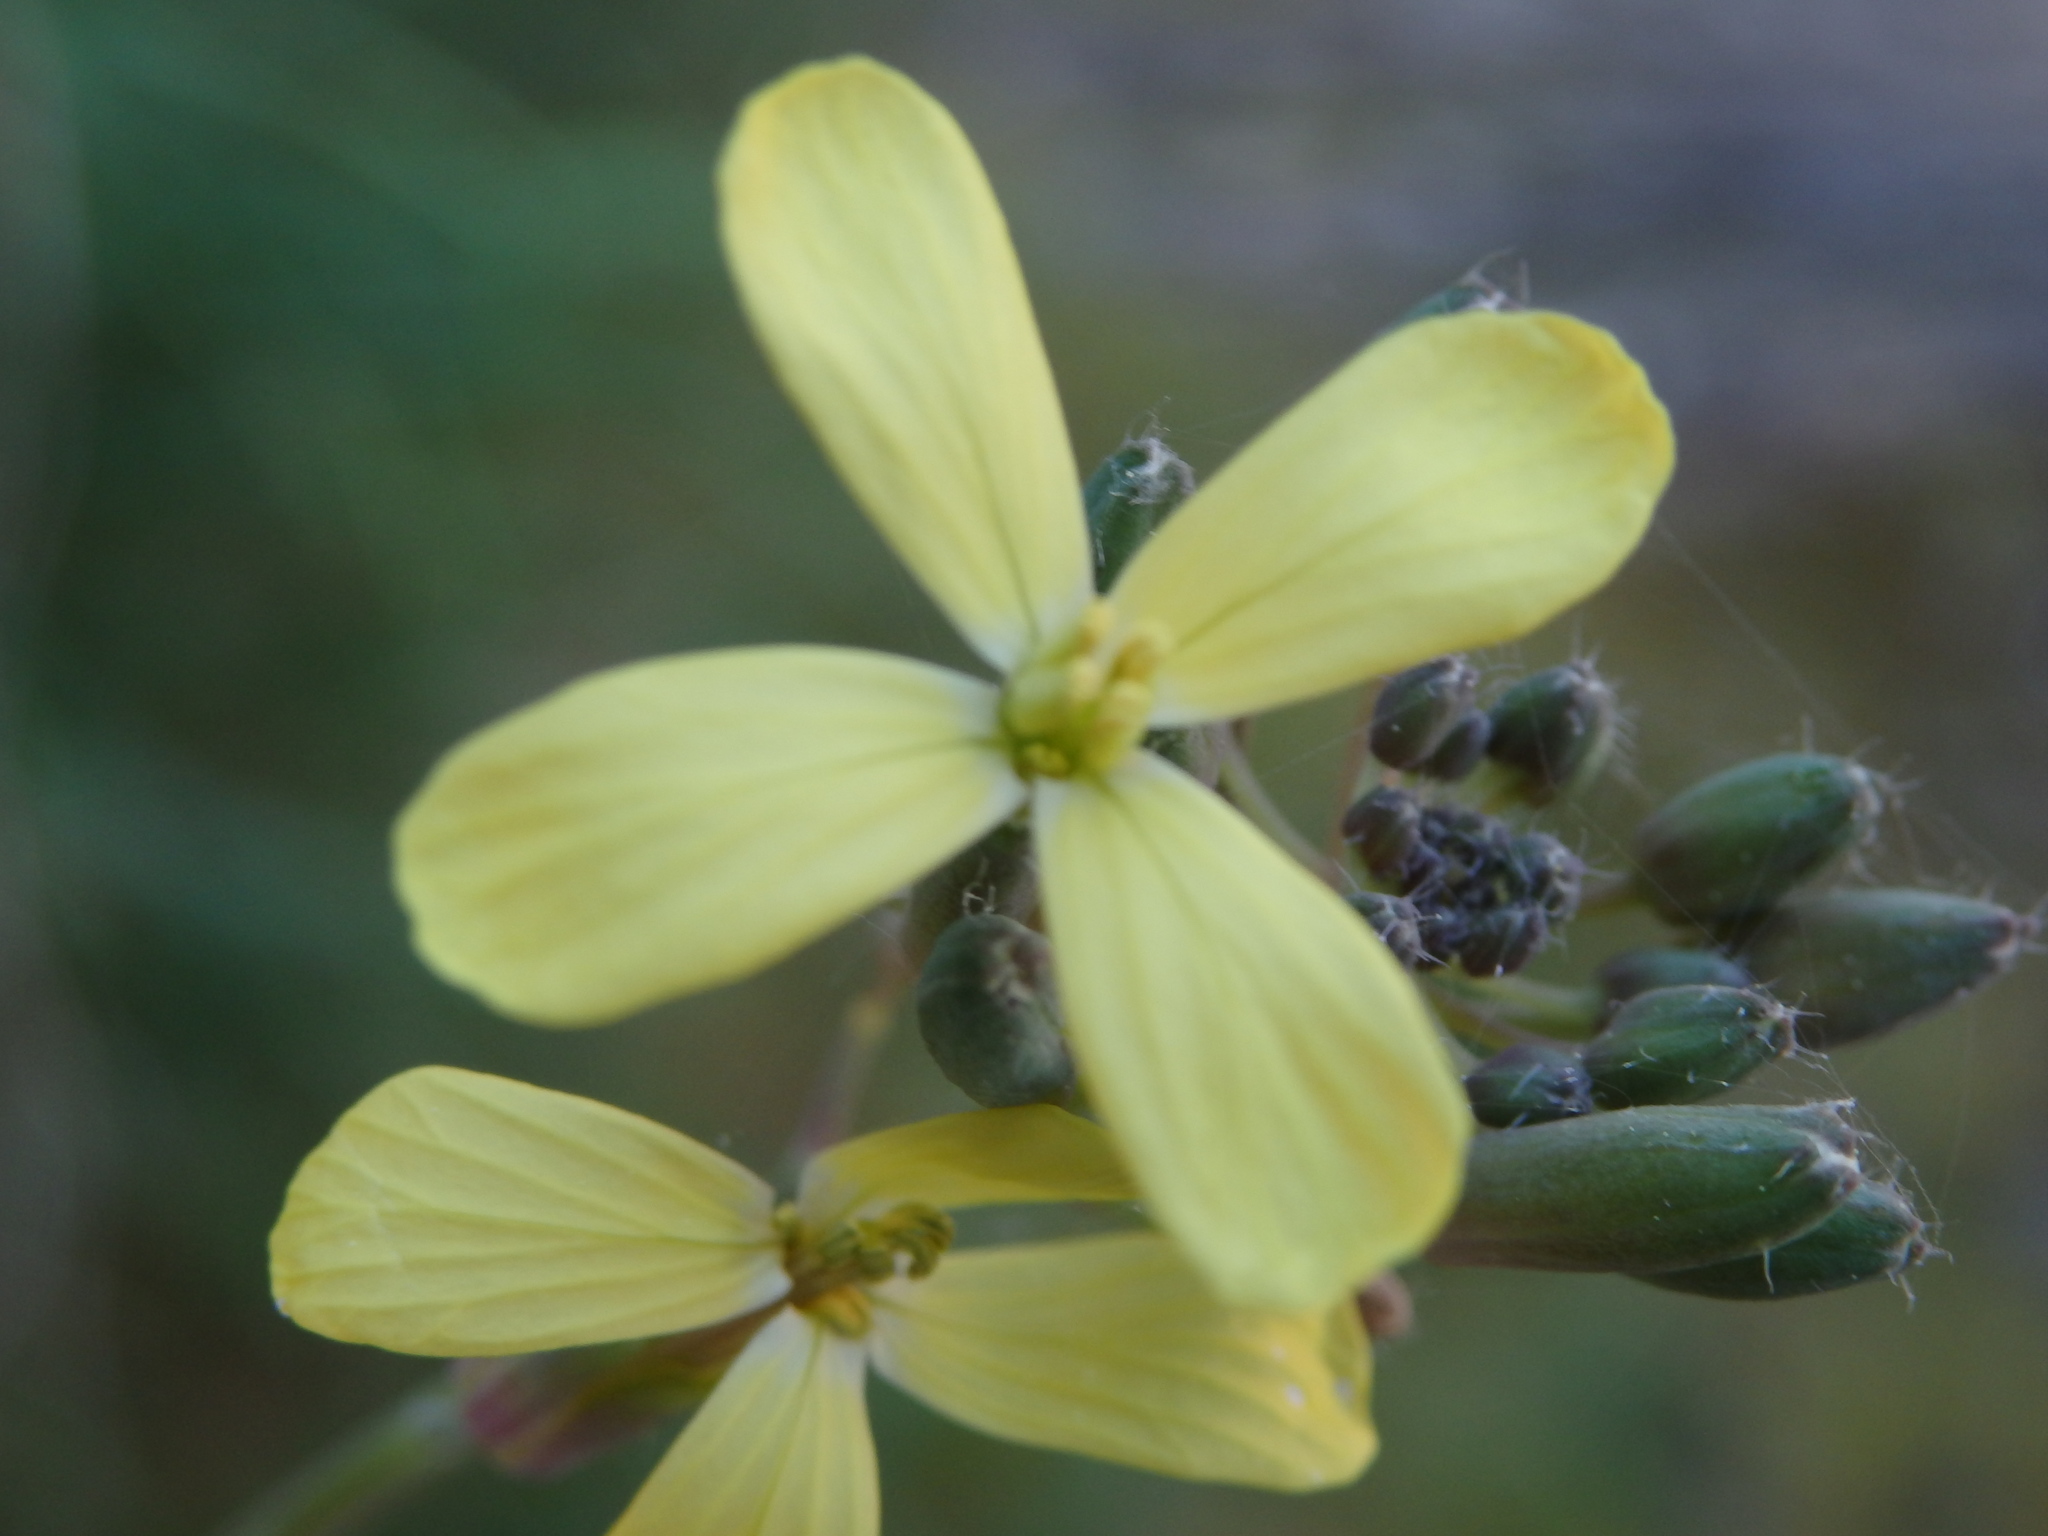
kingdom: Plantae
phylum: Tracheophyta
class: Magnoliopsida
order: Brassicales
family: Brassicaceae
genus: Coincya
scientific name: Coincya monensis
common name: Star-mustard
